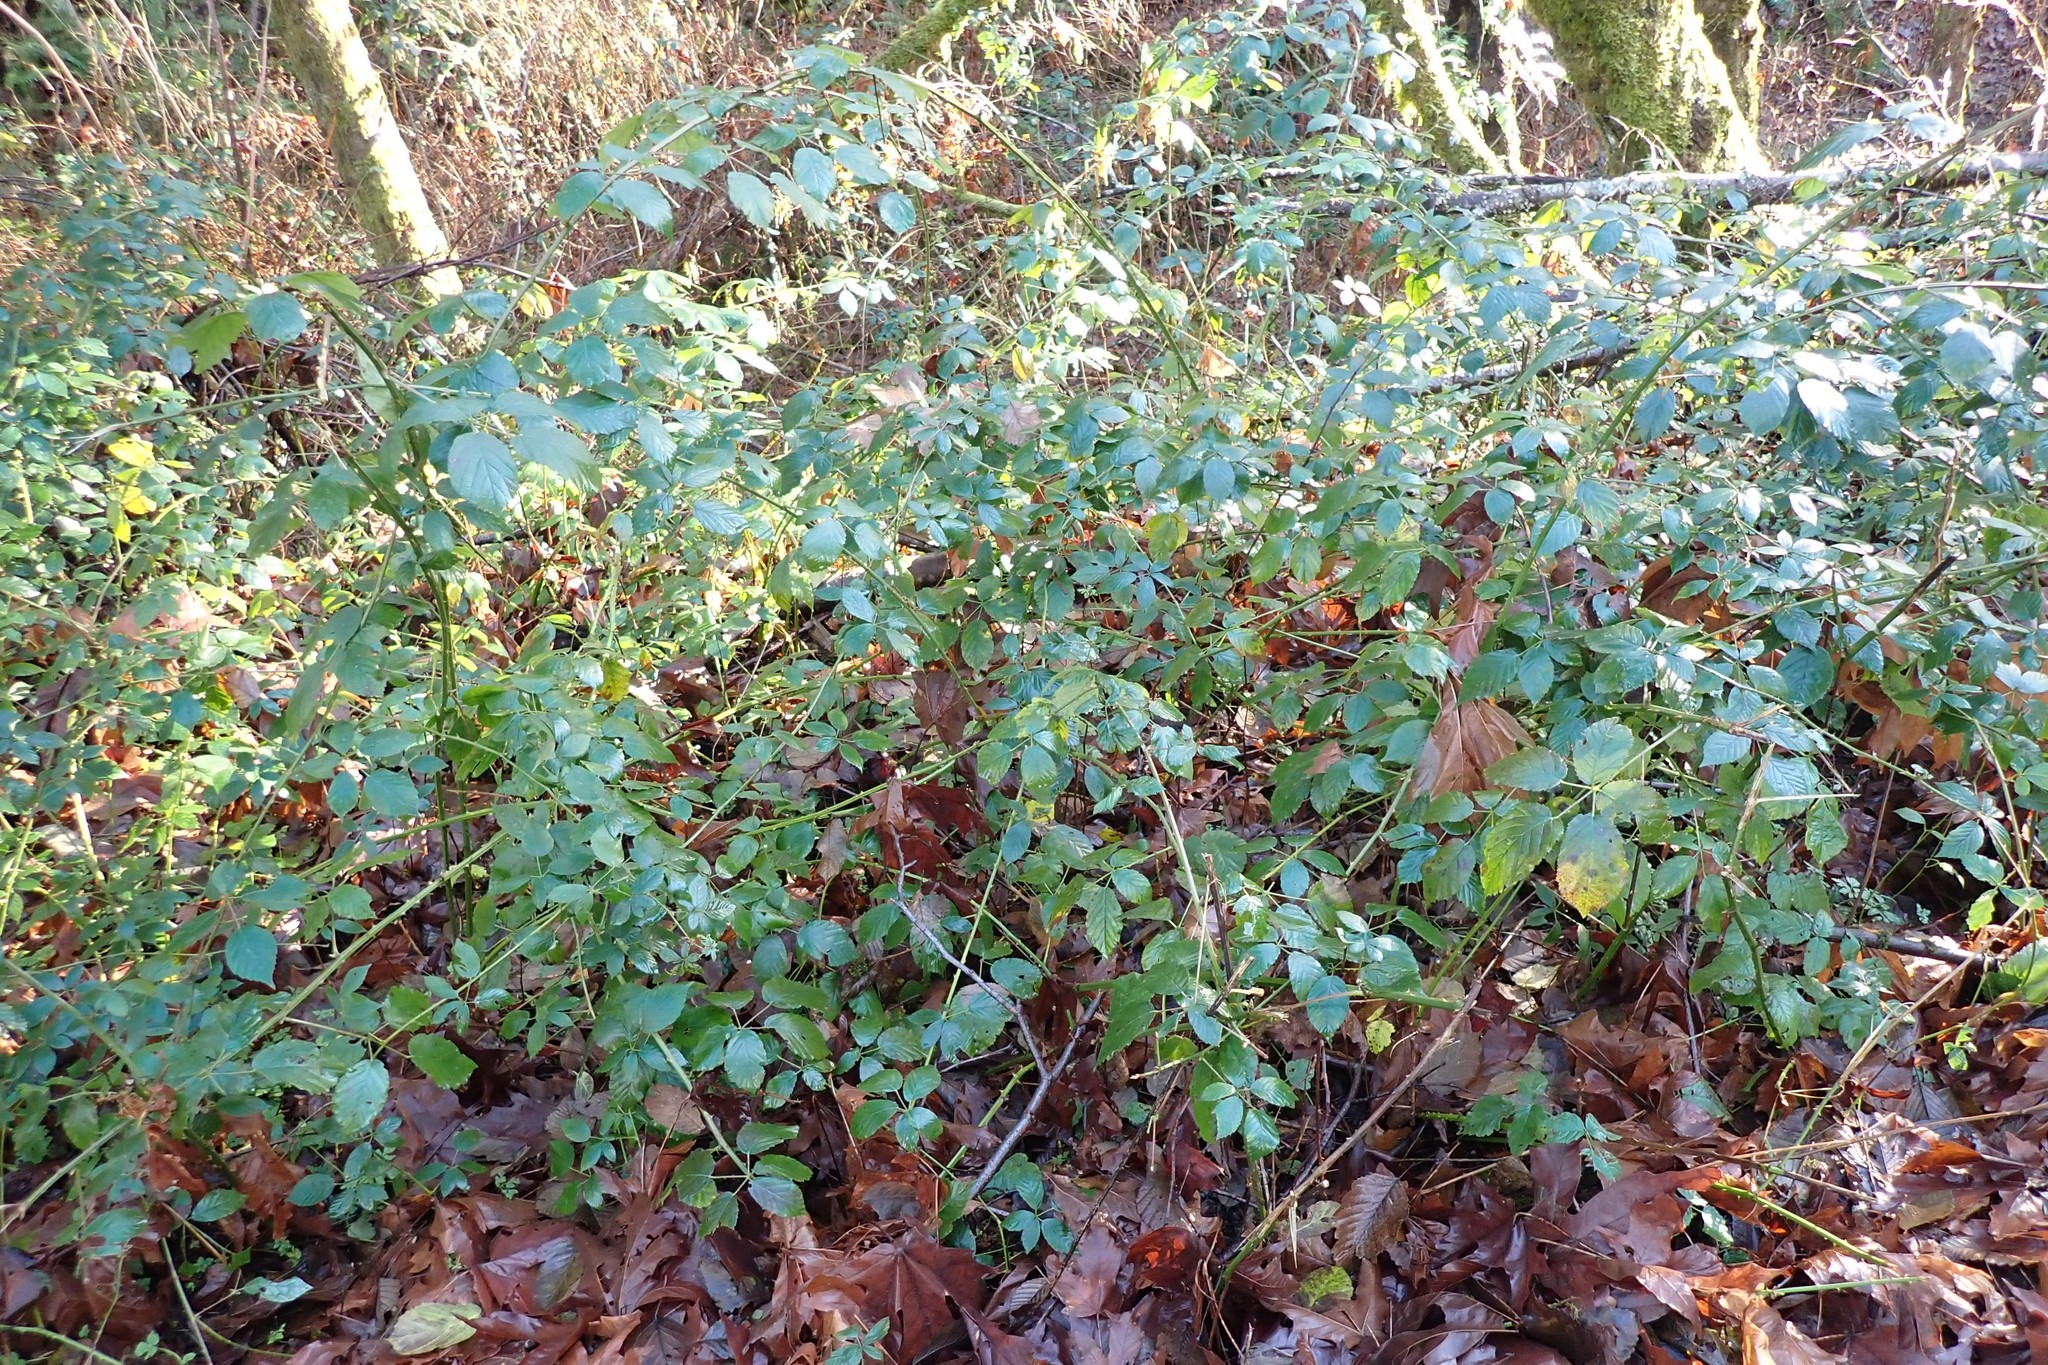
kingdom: Plantae
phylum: Tracheophyta
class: Magnoliopsida
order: Rosales
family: Rosaceae
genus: Rubus
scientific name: Rubus bifrons
